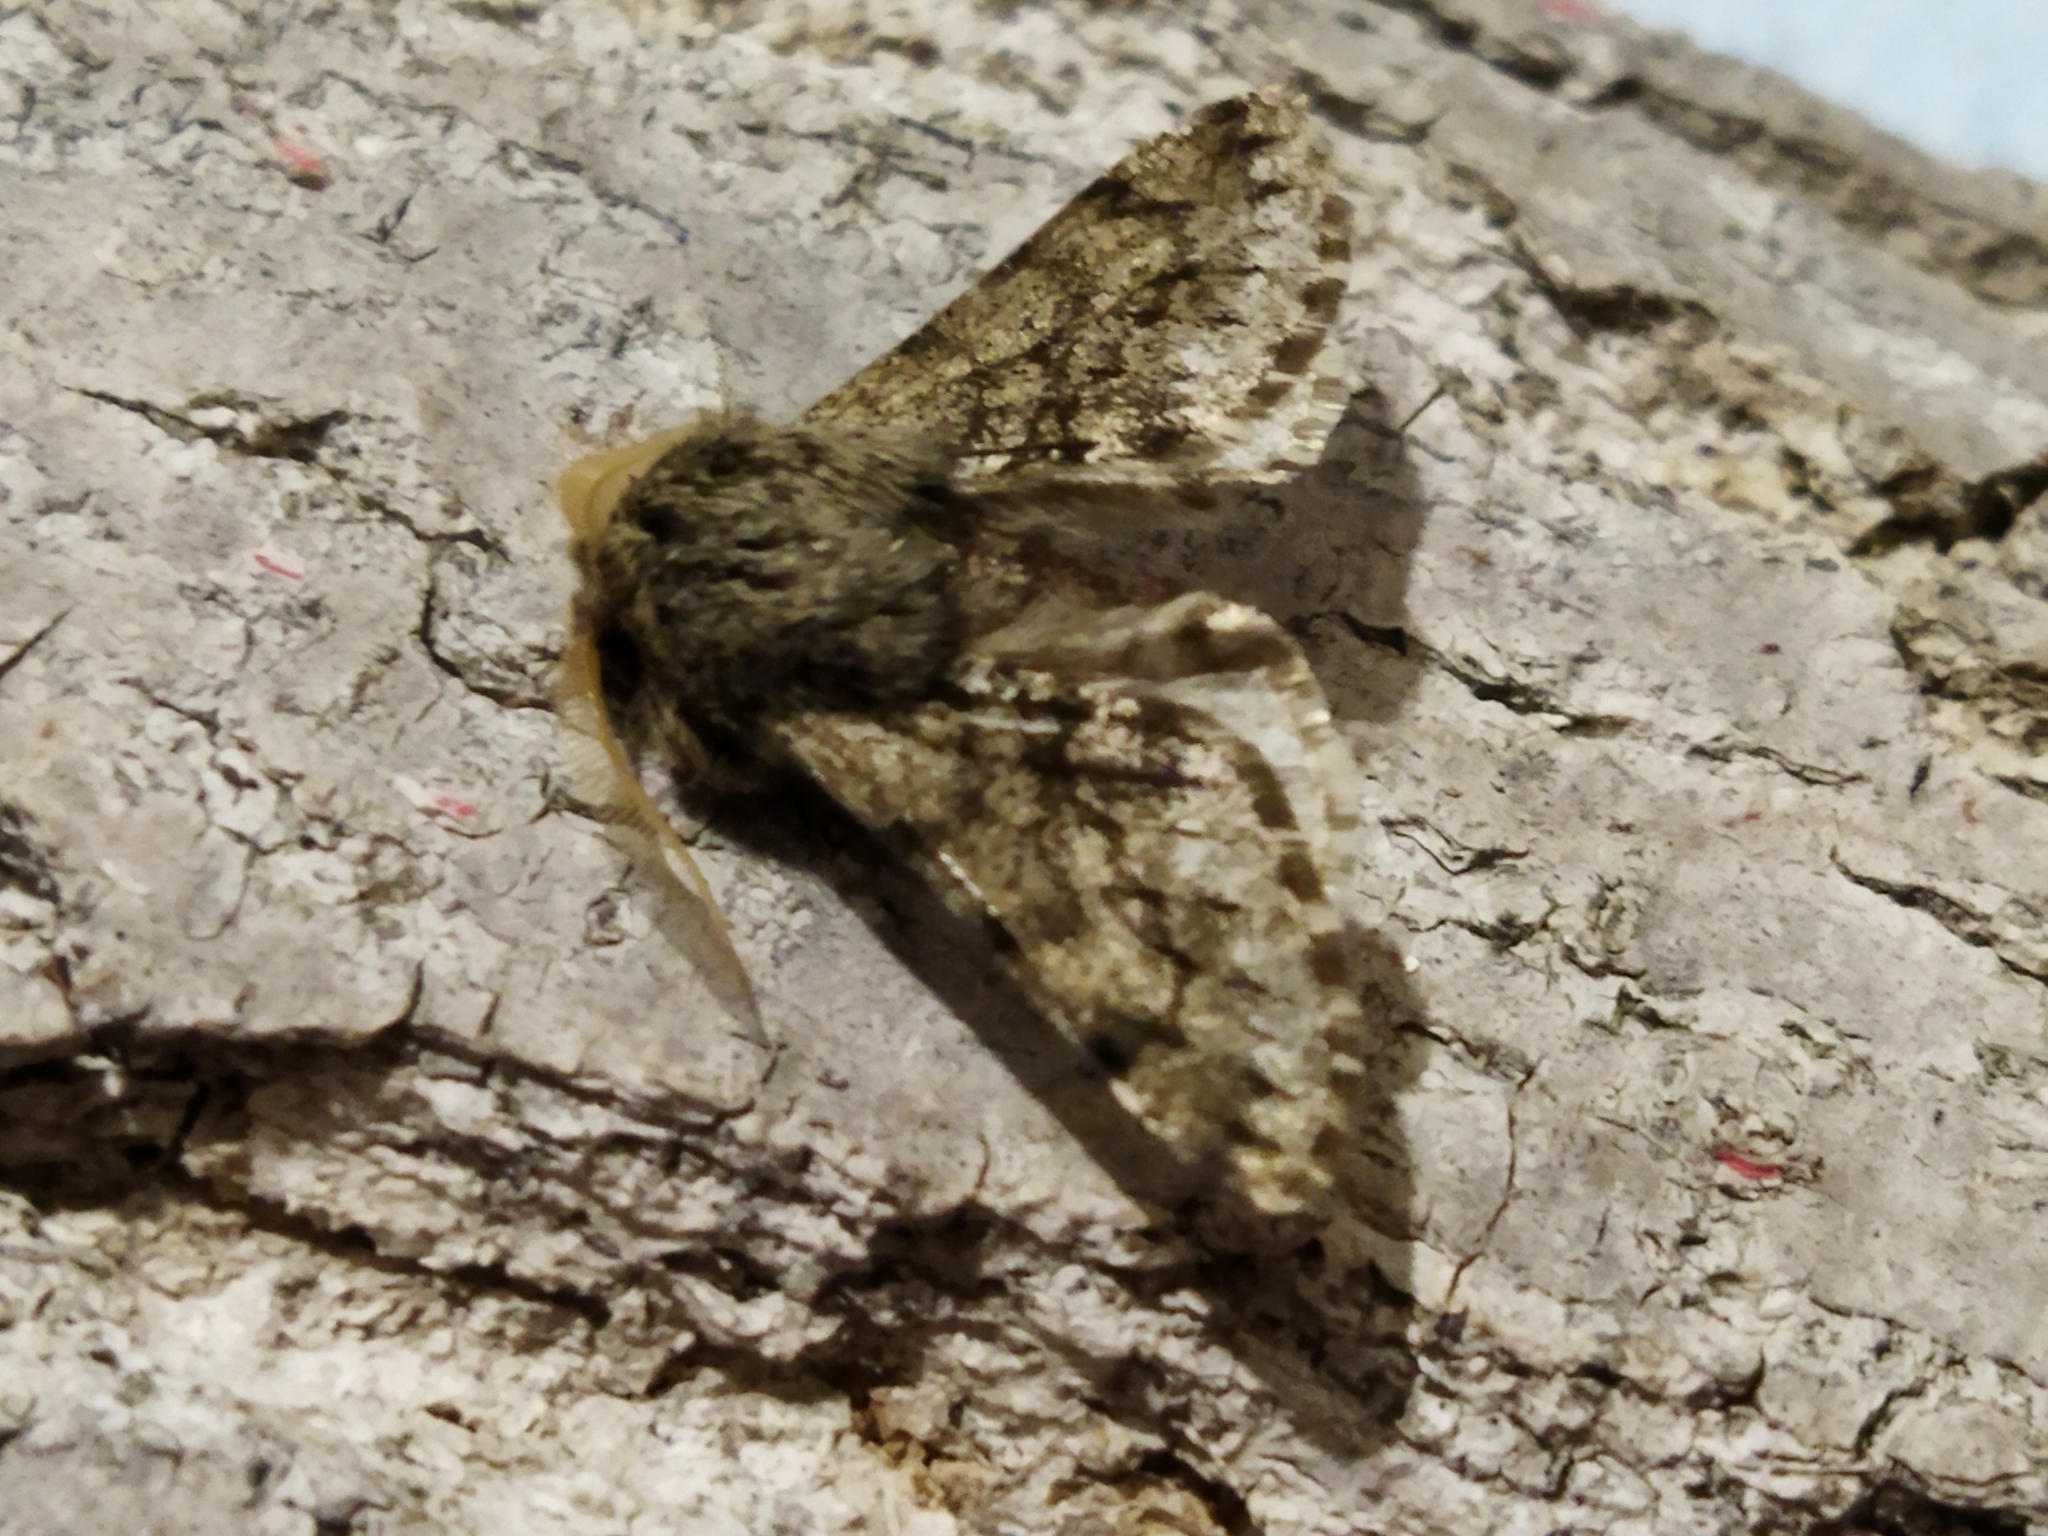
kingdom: Animalia
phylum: Arthropoda
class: Insecta
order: Lepidoptera
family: Geometridae
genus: Apocheima
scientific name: Apocheima hispidaria
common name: Small brindled beauty
